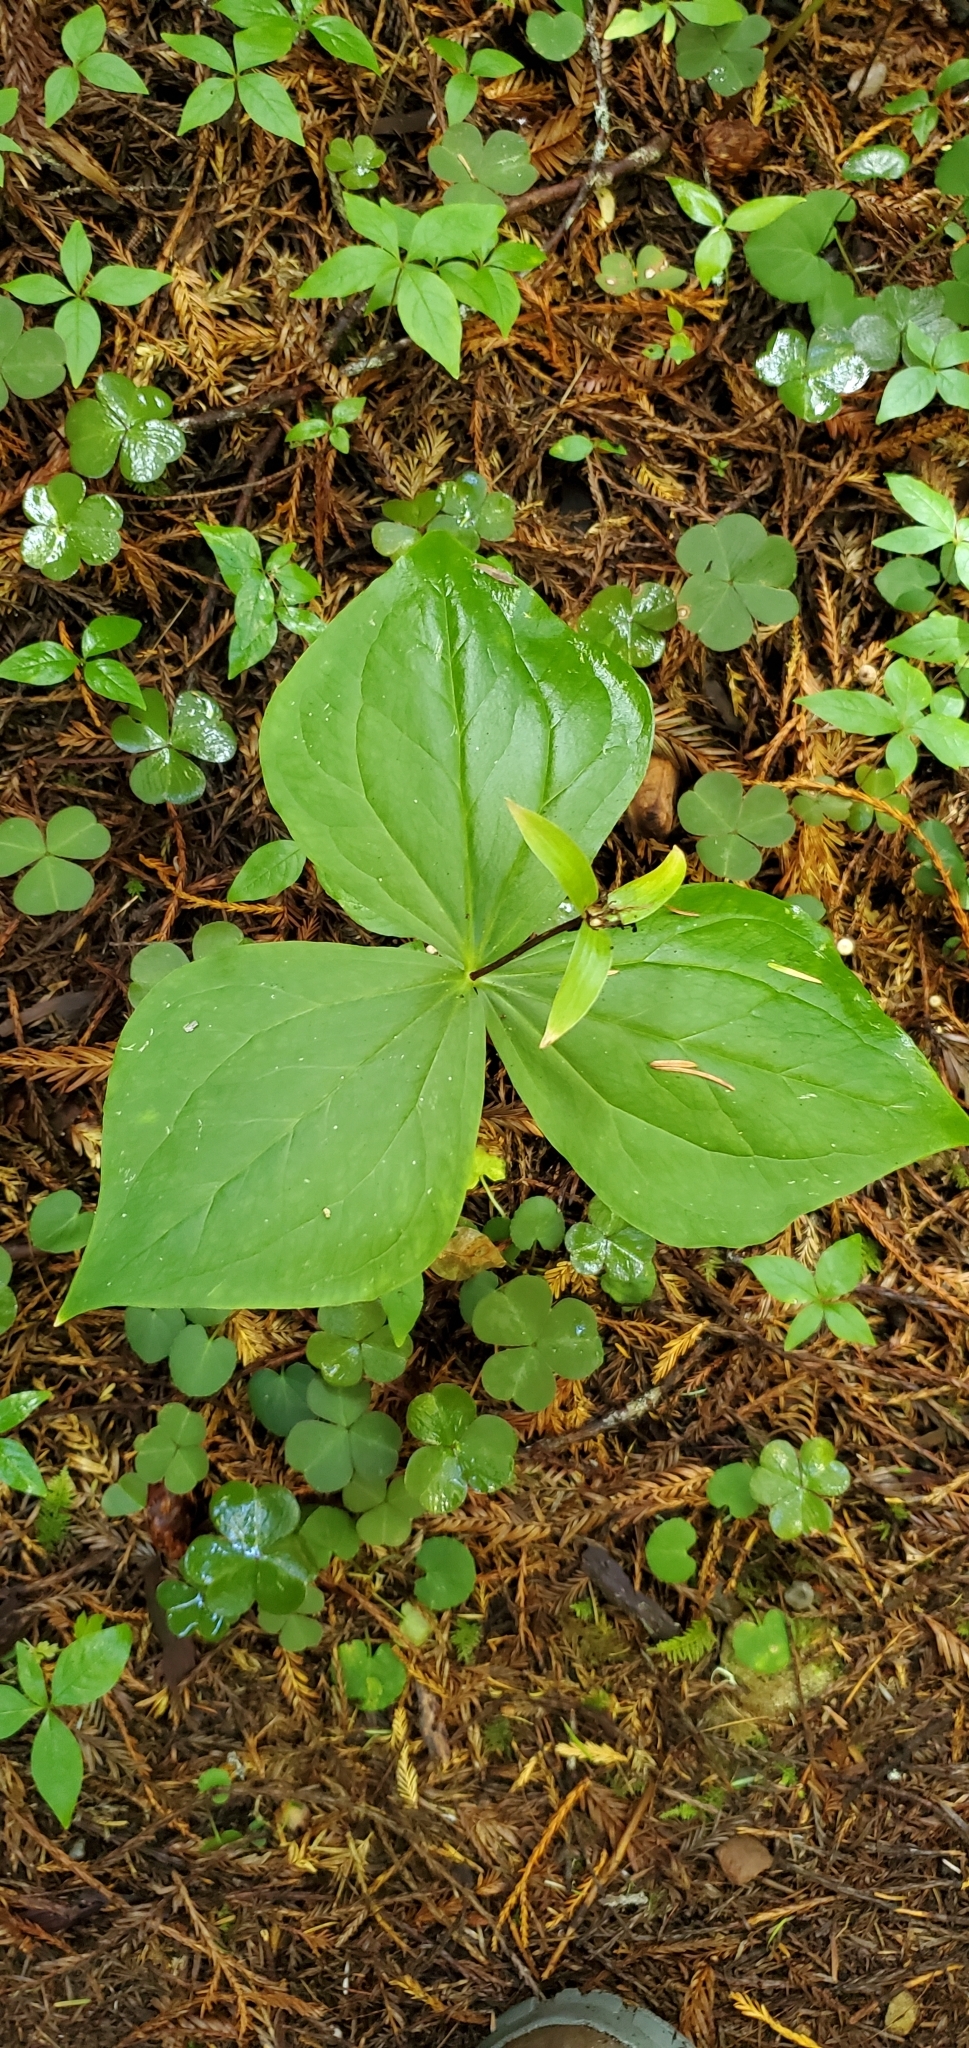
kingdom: Plantae
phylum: Tracheophyta
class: Liliopsida
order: Liliales
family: Melanthiaceae
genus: Trillium
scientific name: Trillium ovatum
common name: Pacific trillium
